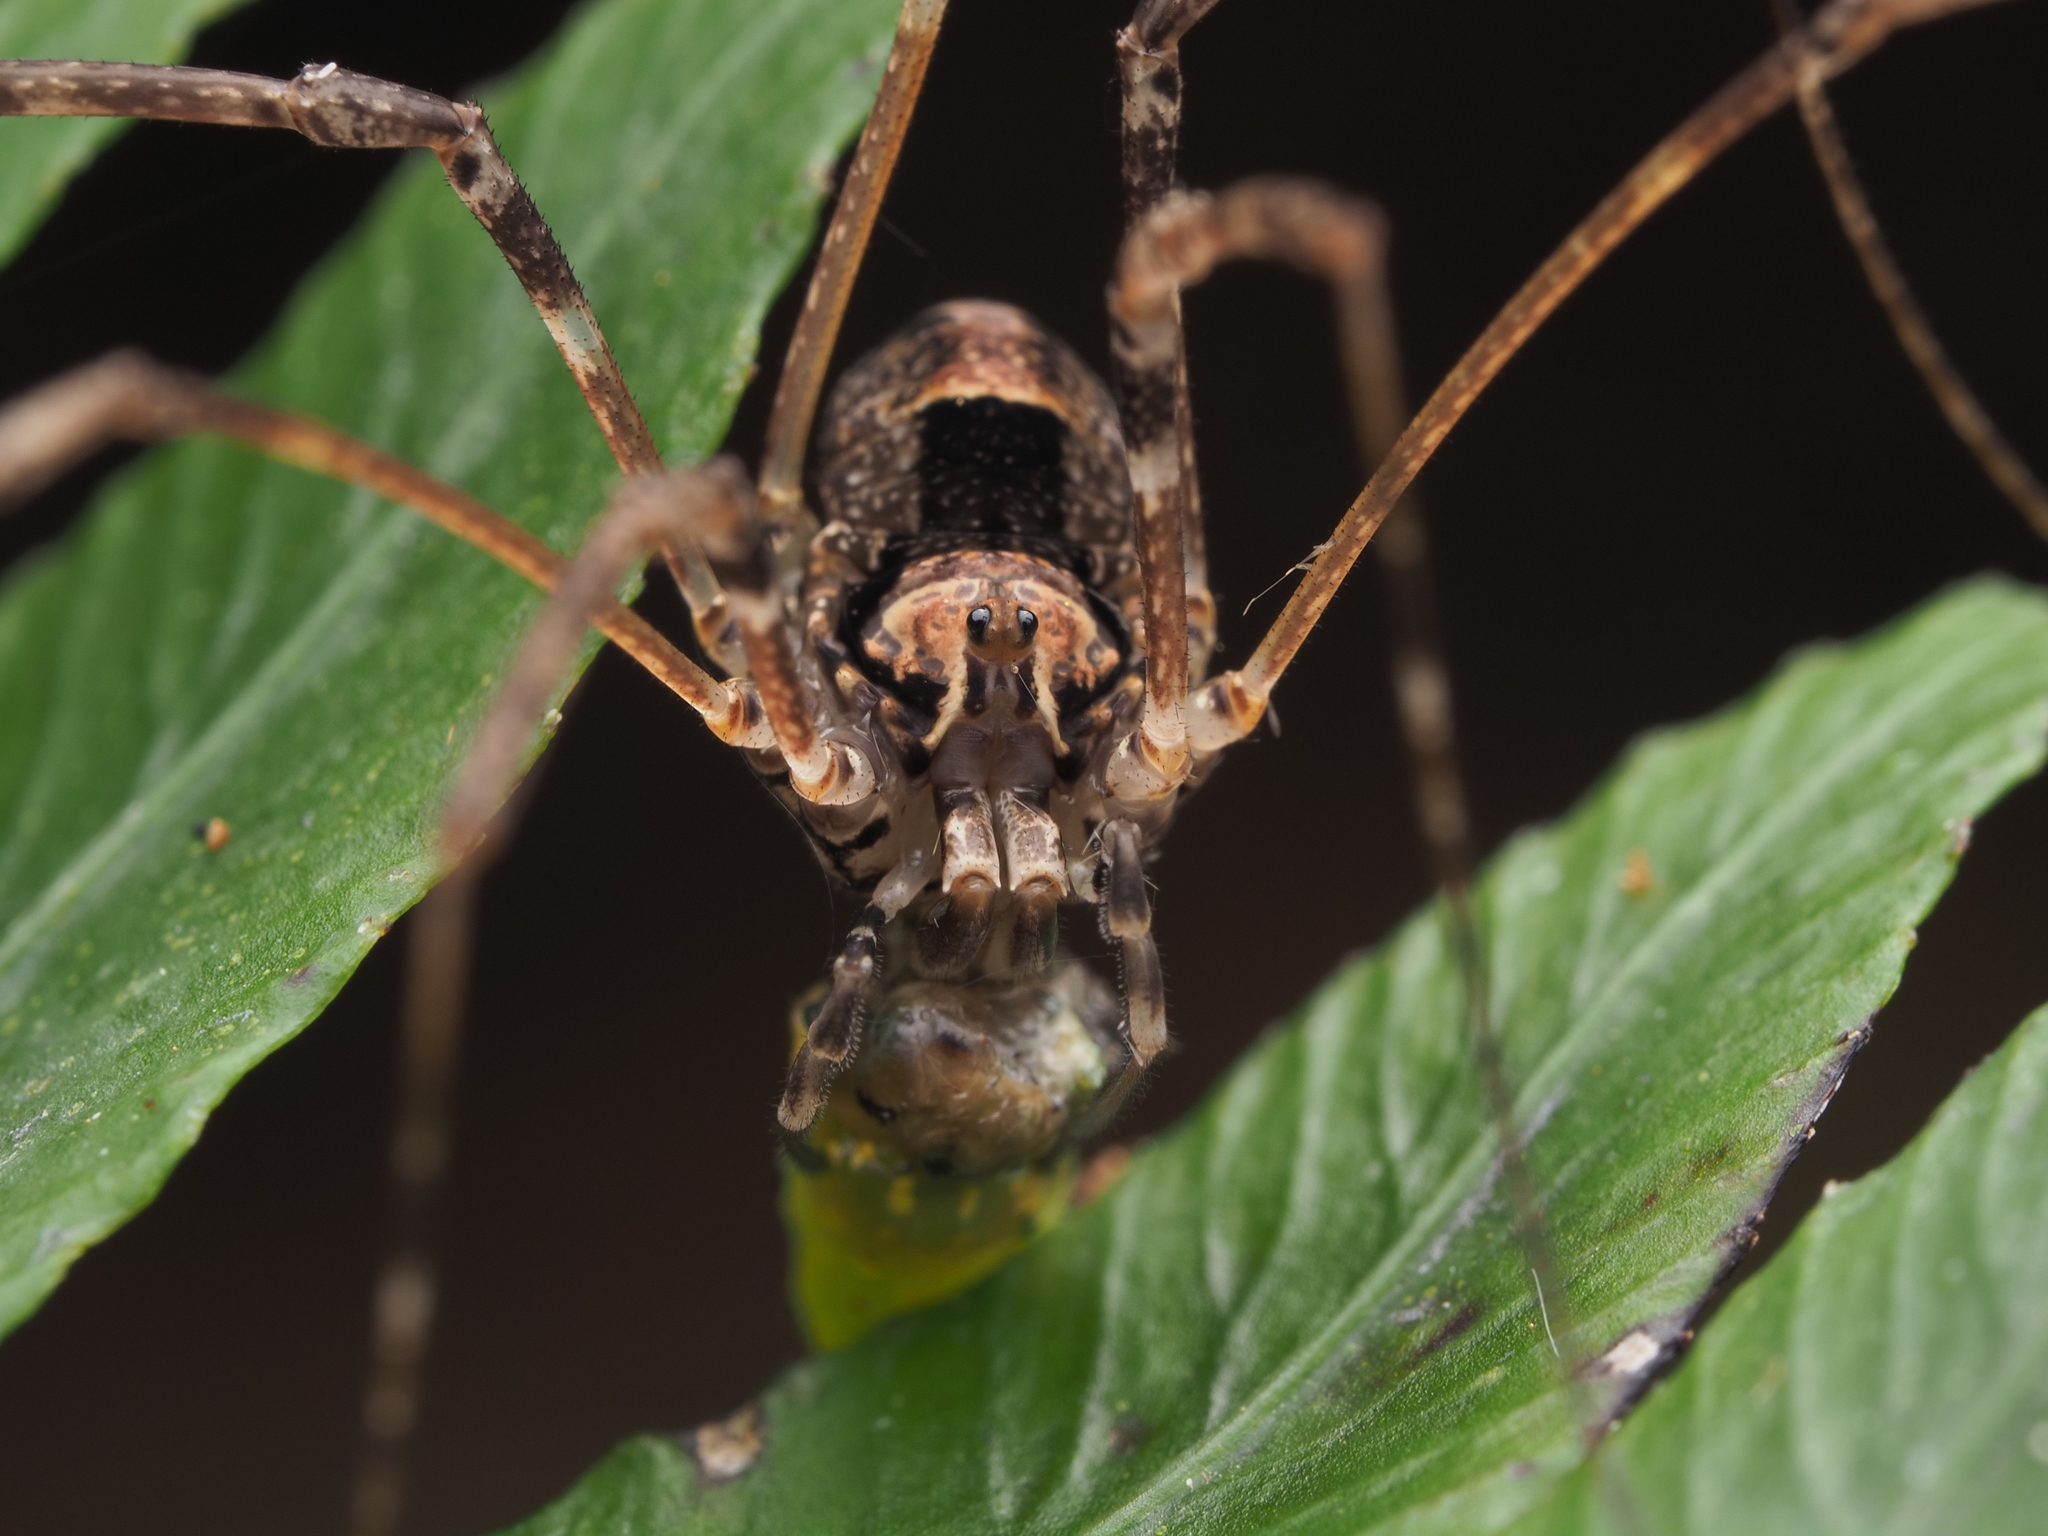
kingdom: Animalia
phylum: Arthropoda
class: Arachnida
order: Opiliones
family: Neopilionidae
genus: Forsteropsalis
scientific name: Forsteropsalis inconstans
